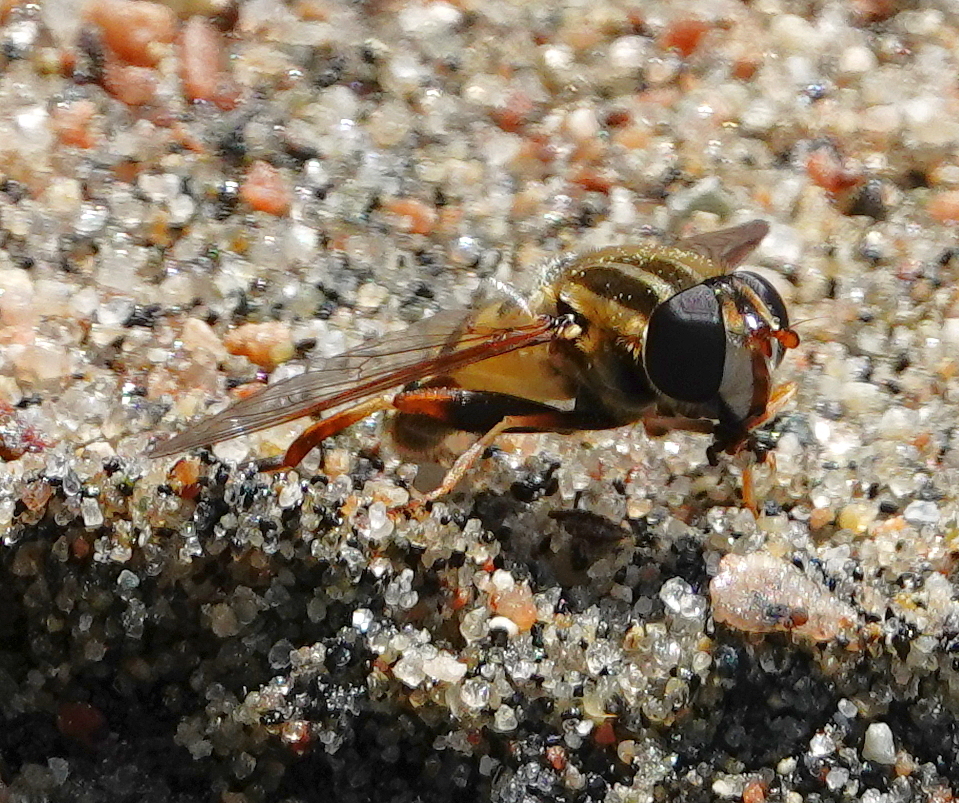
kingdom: Animalia
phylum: Arthropoda
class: Insecta
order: Diptera
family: Syrphidae
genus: Helophilus
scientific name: Helophilus fasciatus
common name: Narrow-headed marsh fly
